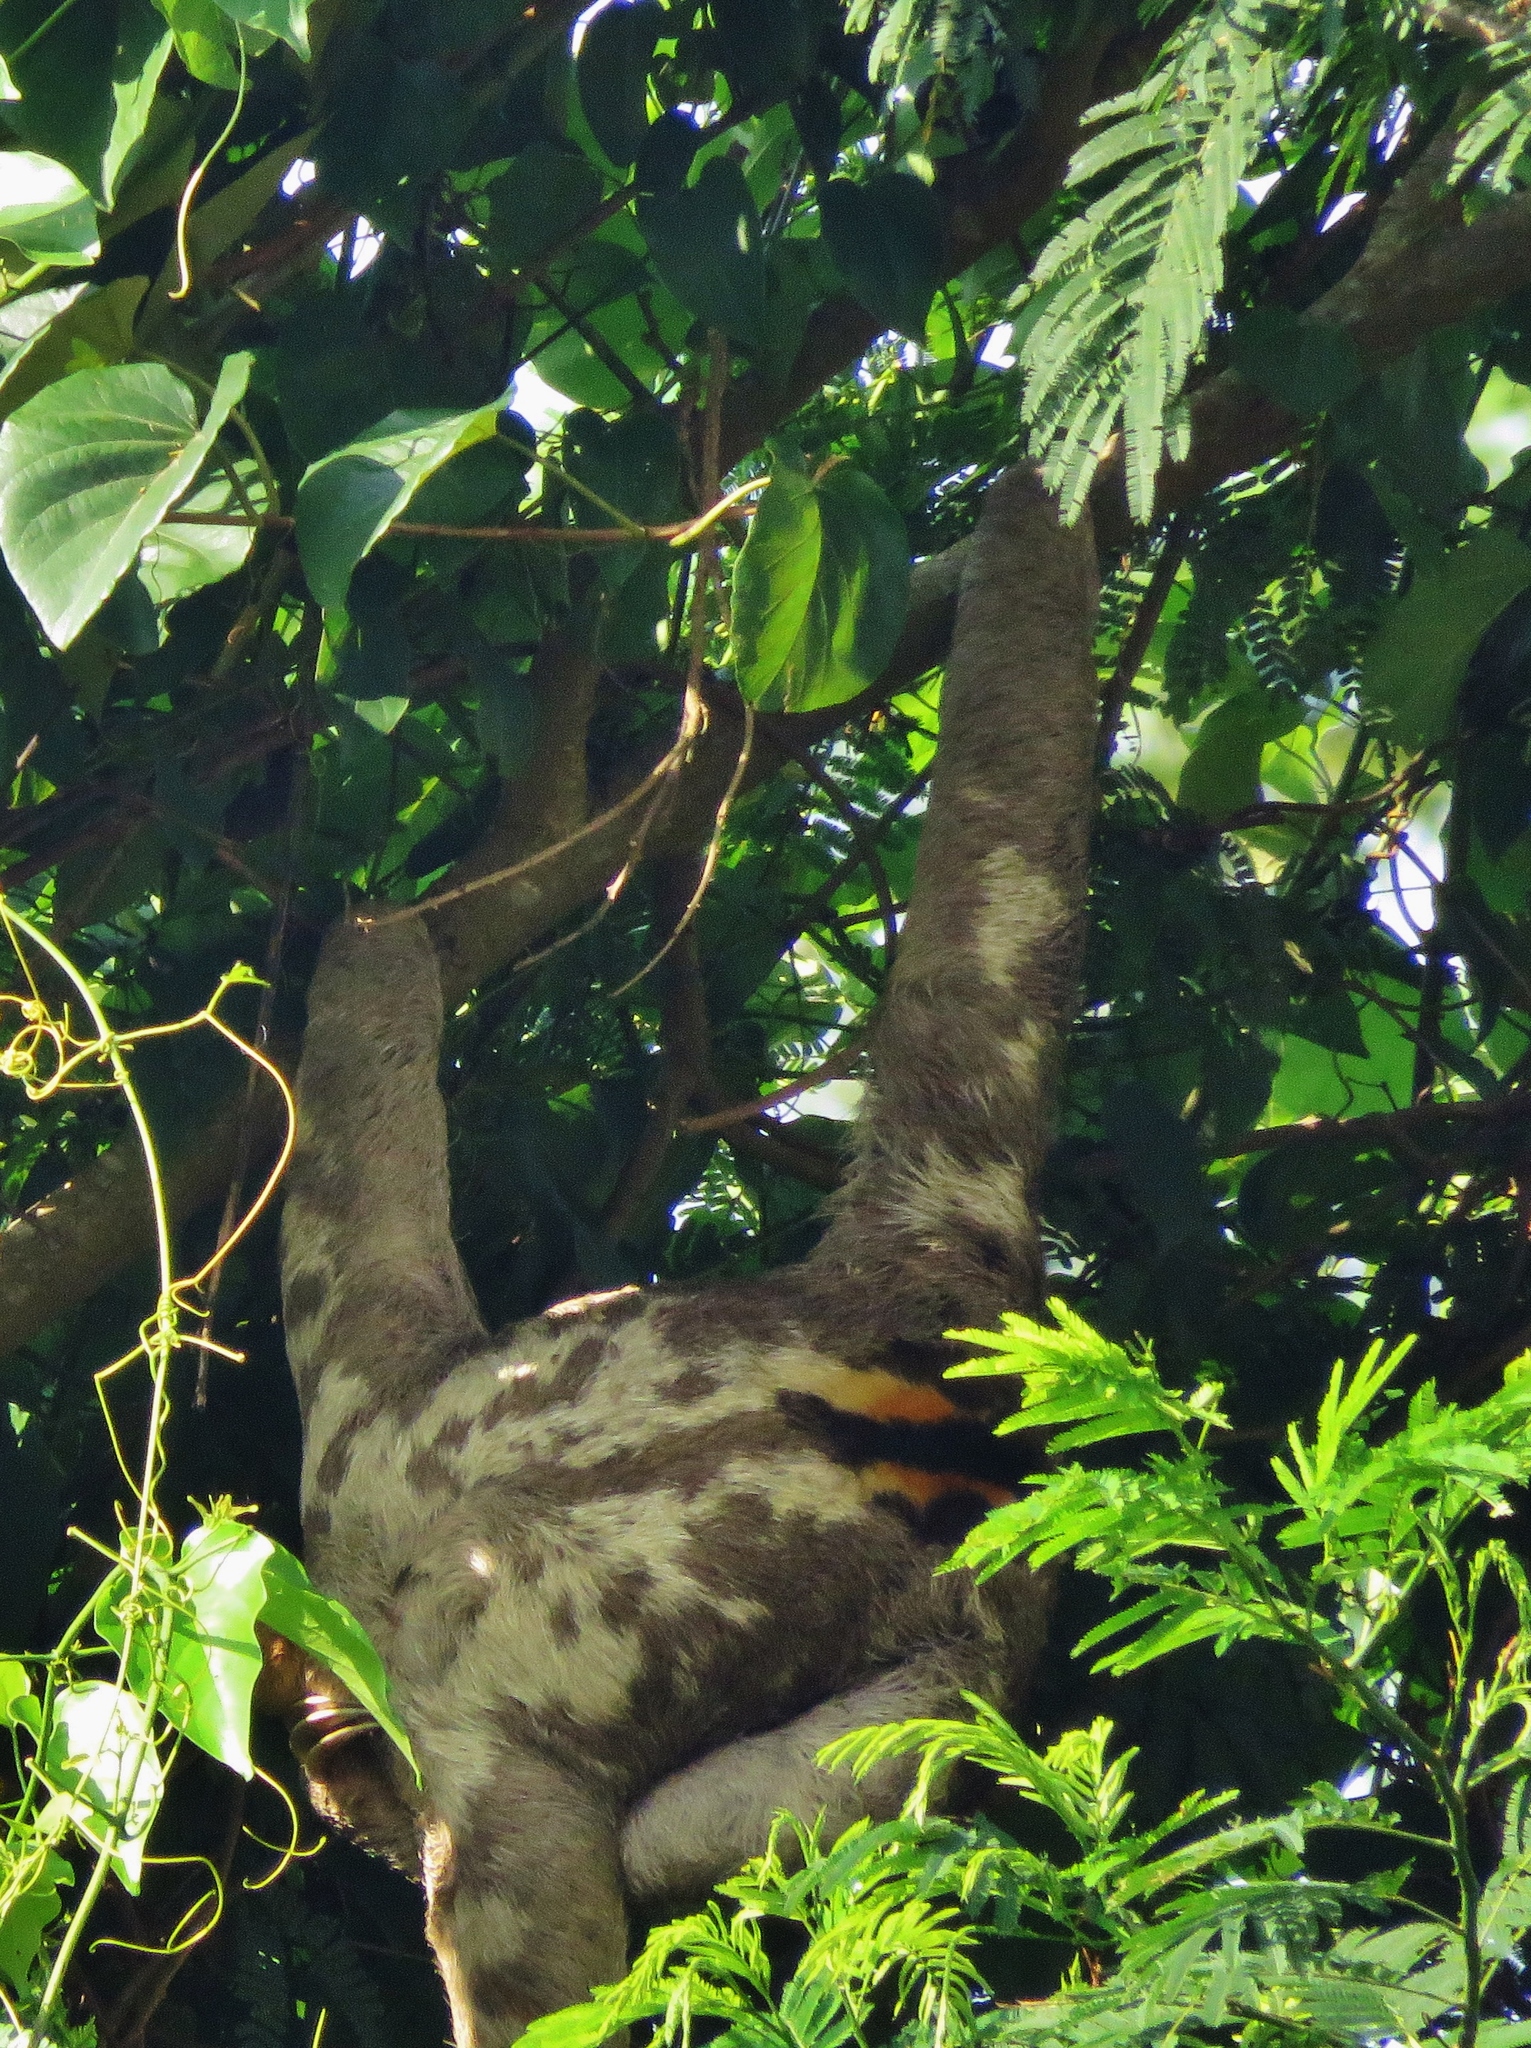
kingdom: Animalia
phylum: Chordata
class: Mammalia
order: Pilosa
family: Bradypodidae
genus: Bradypus
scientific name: Bradypus variegatus
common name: Brown-throated three-toed sloth
